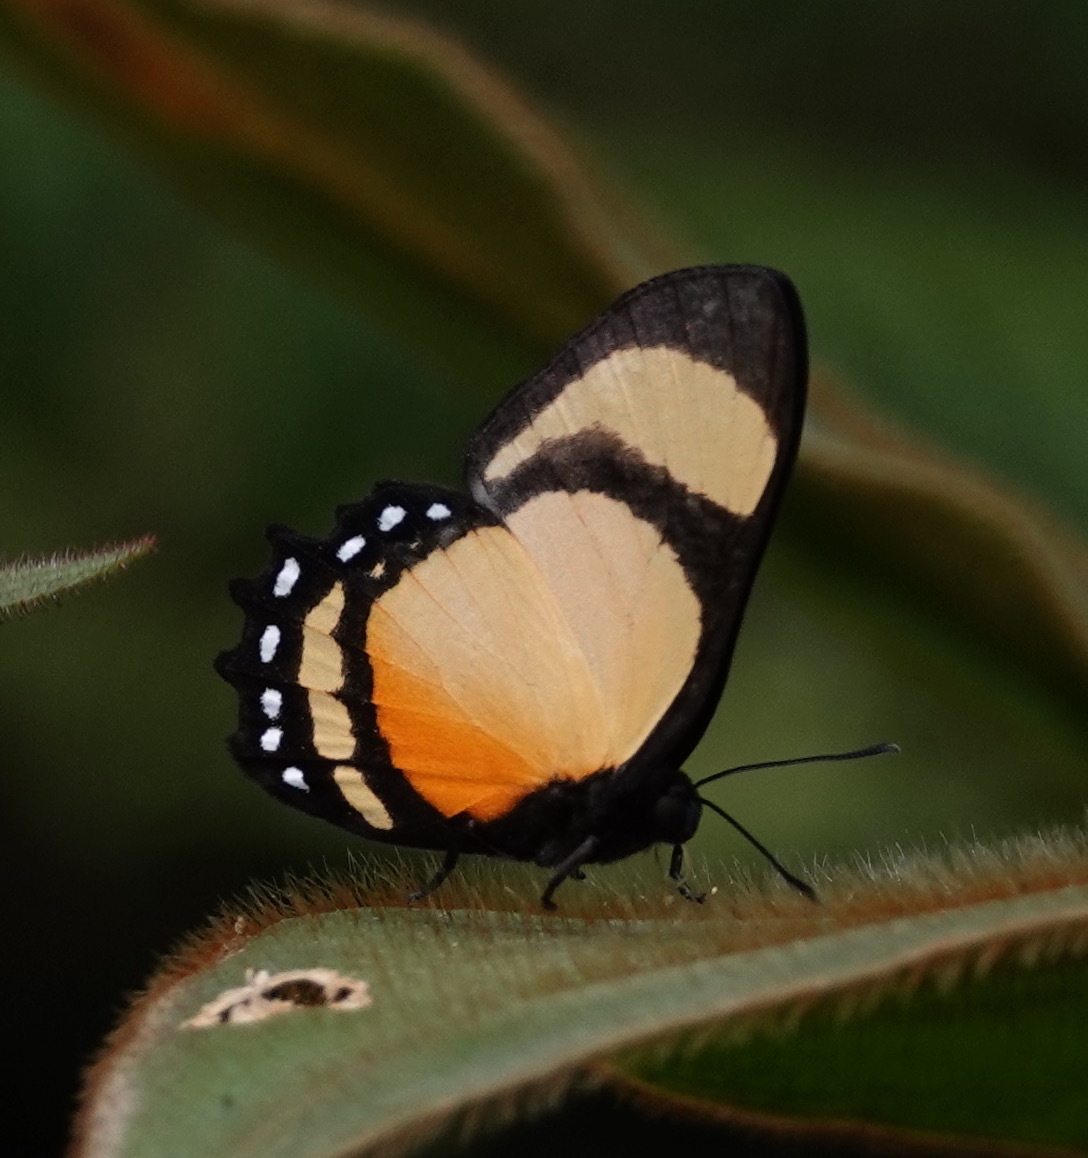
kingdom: Animalia
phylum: Arthropoda
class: Insecta
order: Lepidoptera
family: Riodinidae
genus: Methone
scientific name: Methone cecilia
